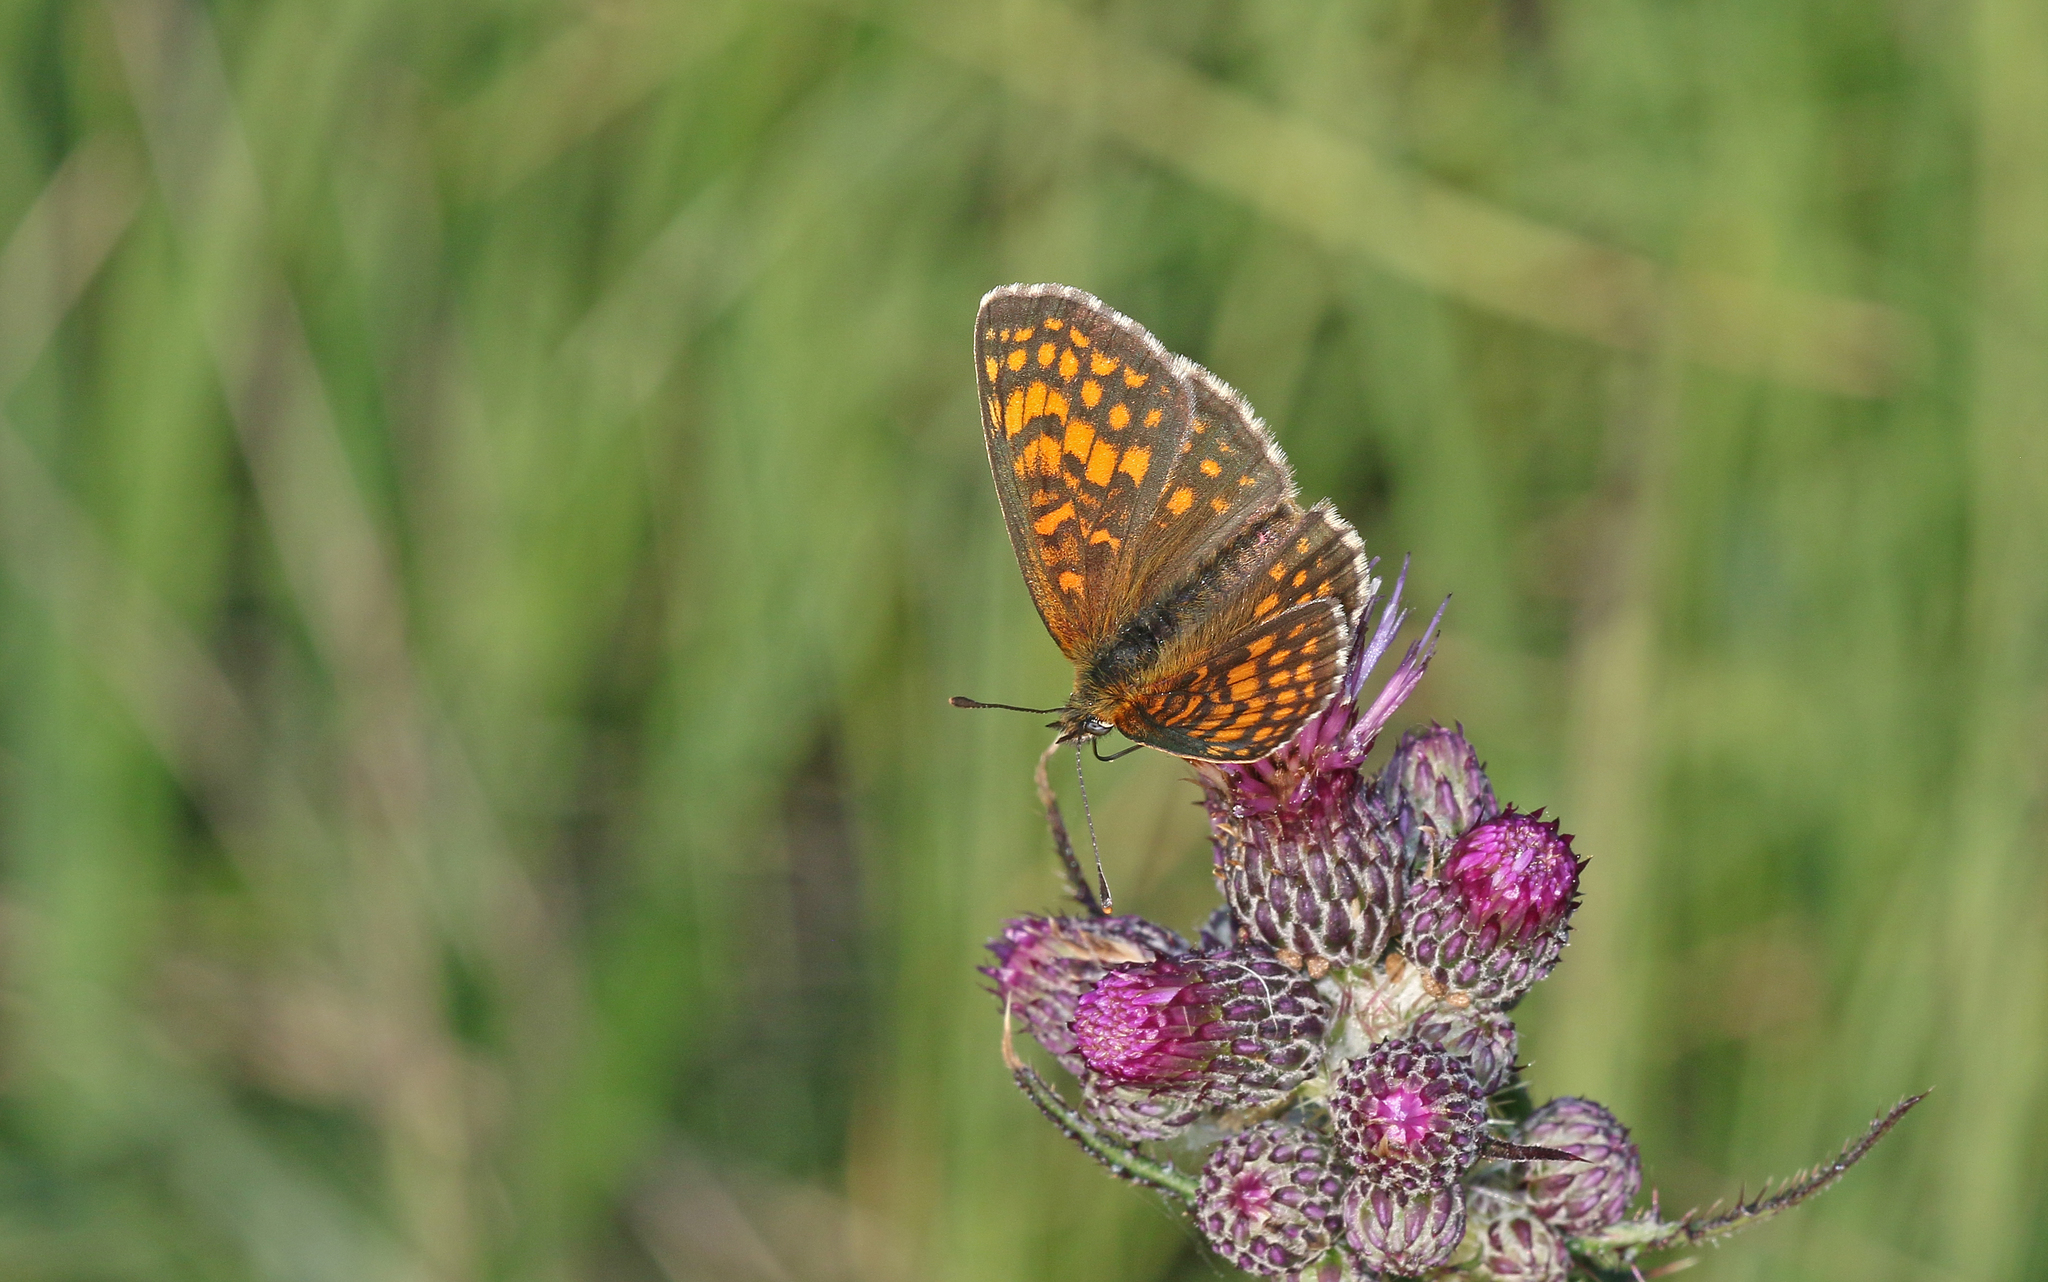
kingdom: Animalia
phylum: Arthropoda
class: Insecta
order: Lepidoptera
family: Nymphalidae
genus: Melitaea
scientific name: Melitaea athalia
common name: Heath fritillary
